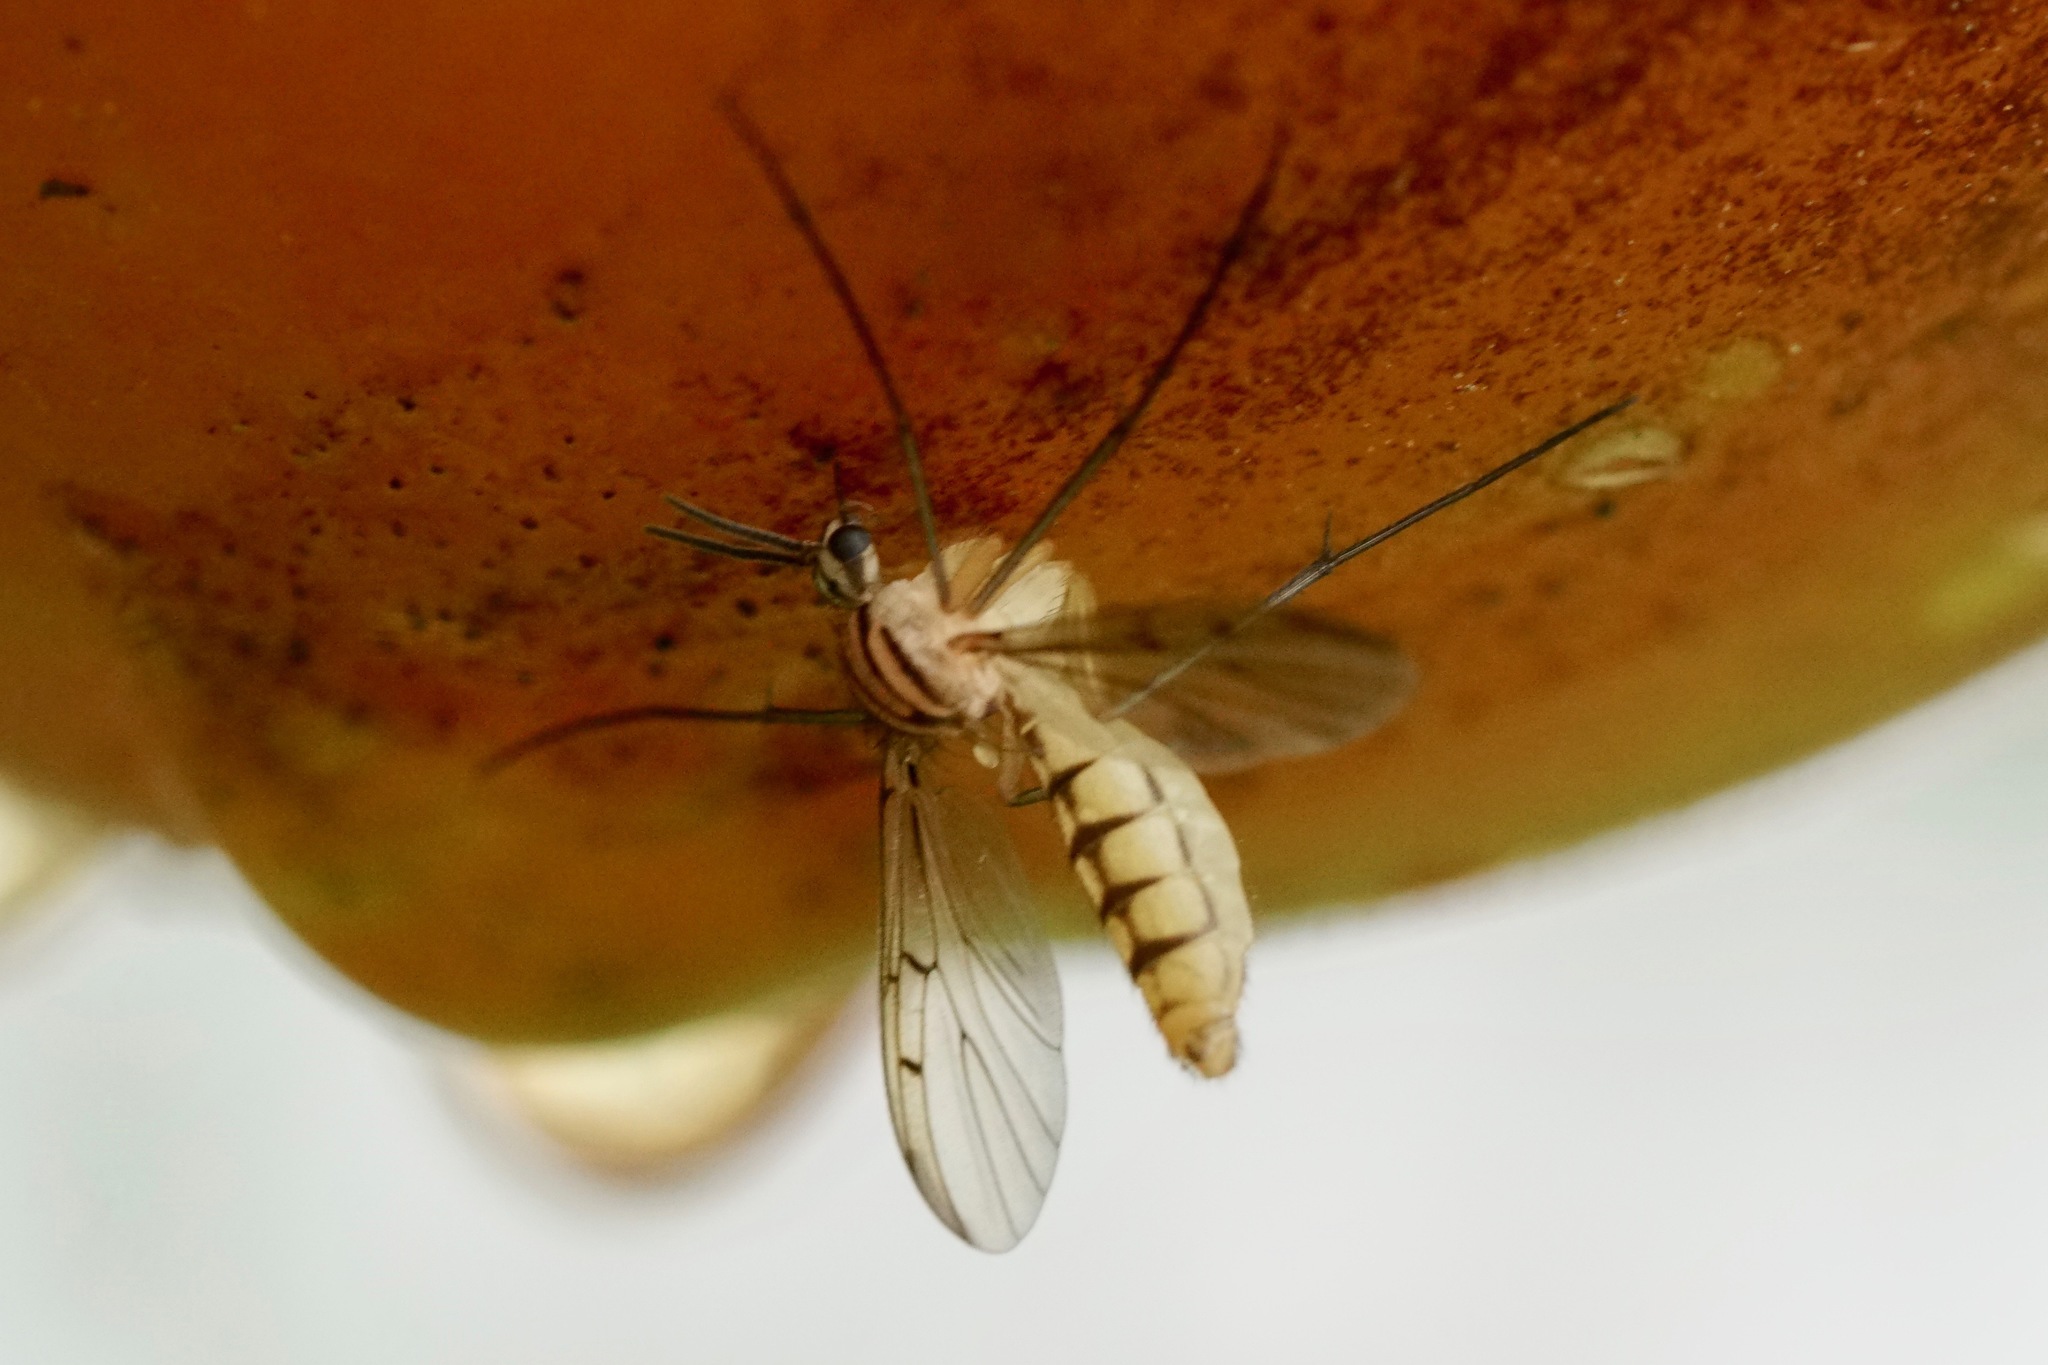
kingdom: Animalia
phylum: Arthropoda
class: Insecta
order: Diptera
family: Mycetophilidae
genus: Neoempheria
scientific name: Neoempheria balioptera
